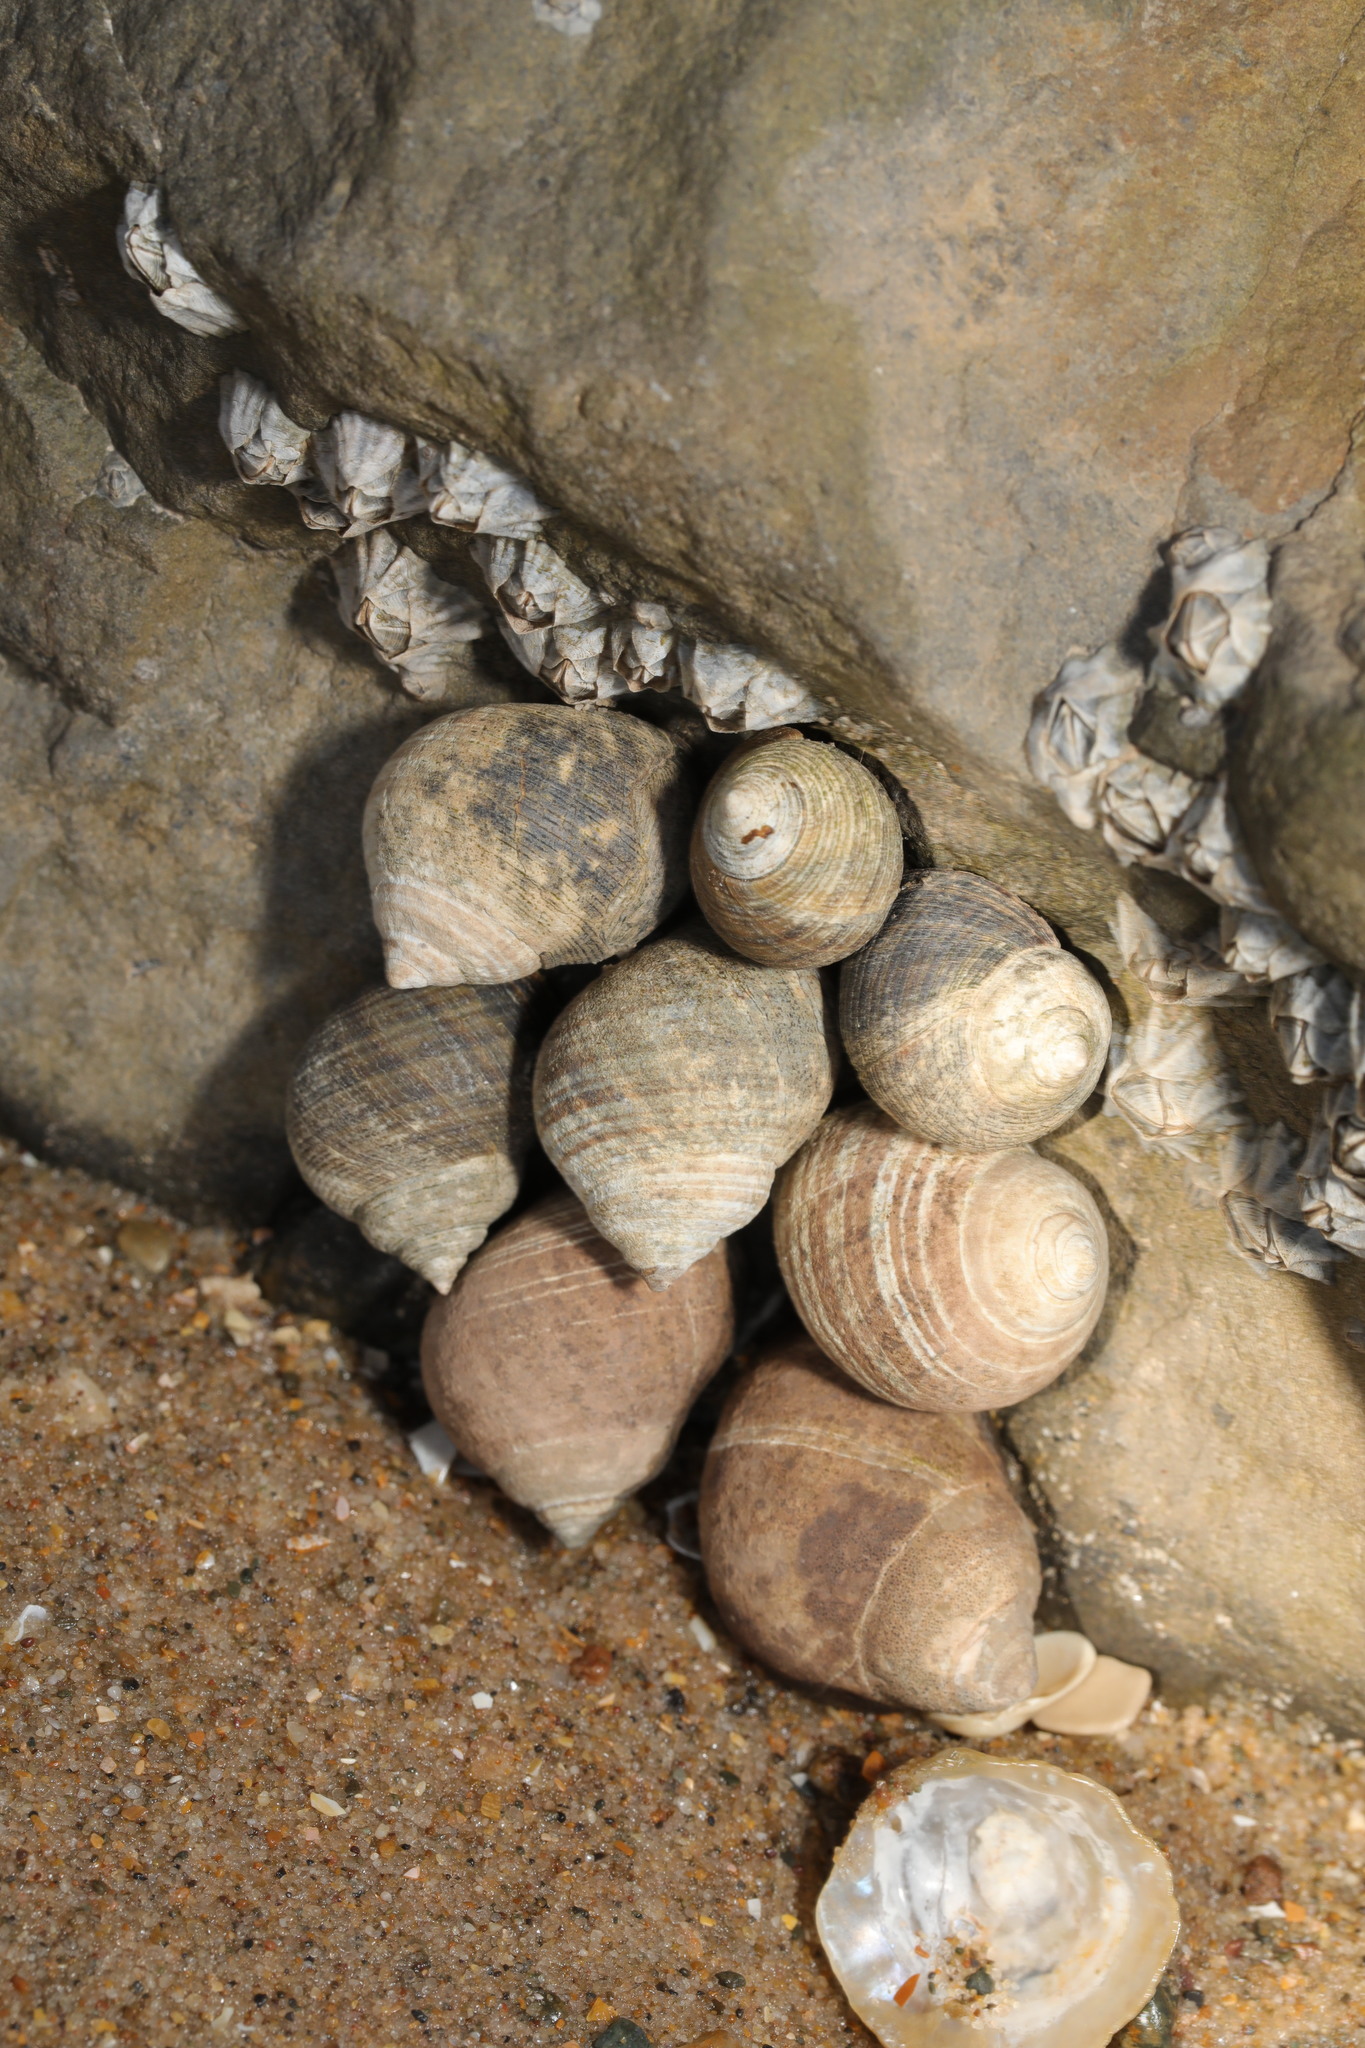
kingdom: Animalia
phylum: Mollusca
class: Gastropoda
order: Littorinimorpha
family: Littorinidae
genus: Littorina
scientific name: Littorina littorea
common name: Common periwinkle
